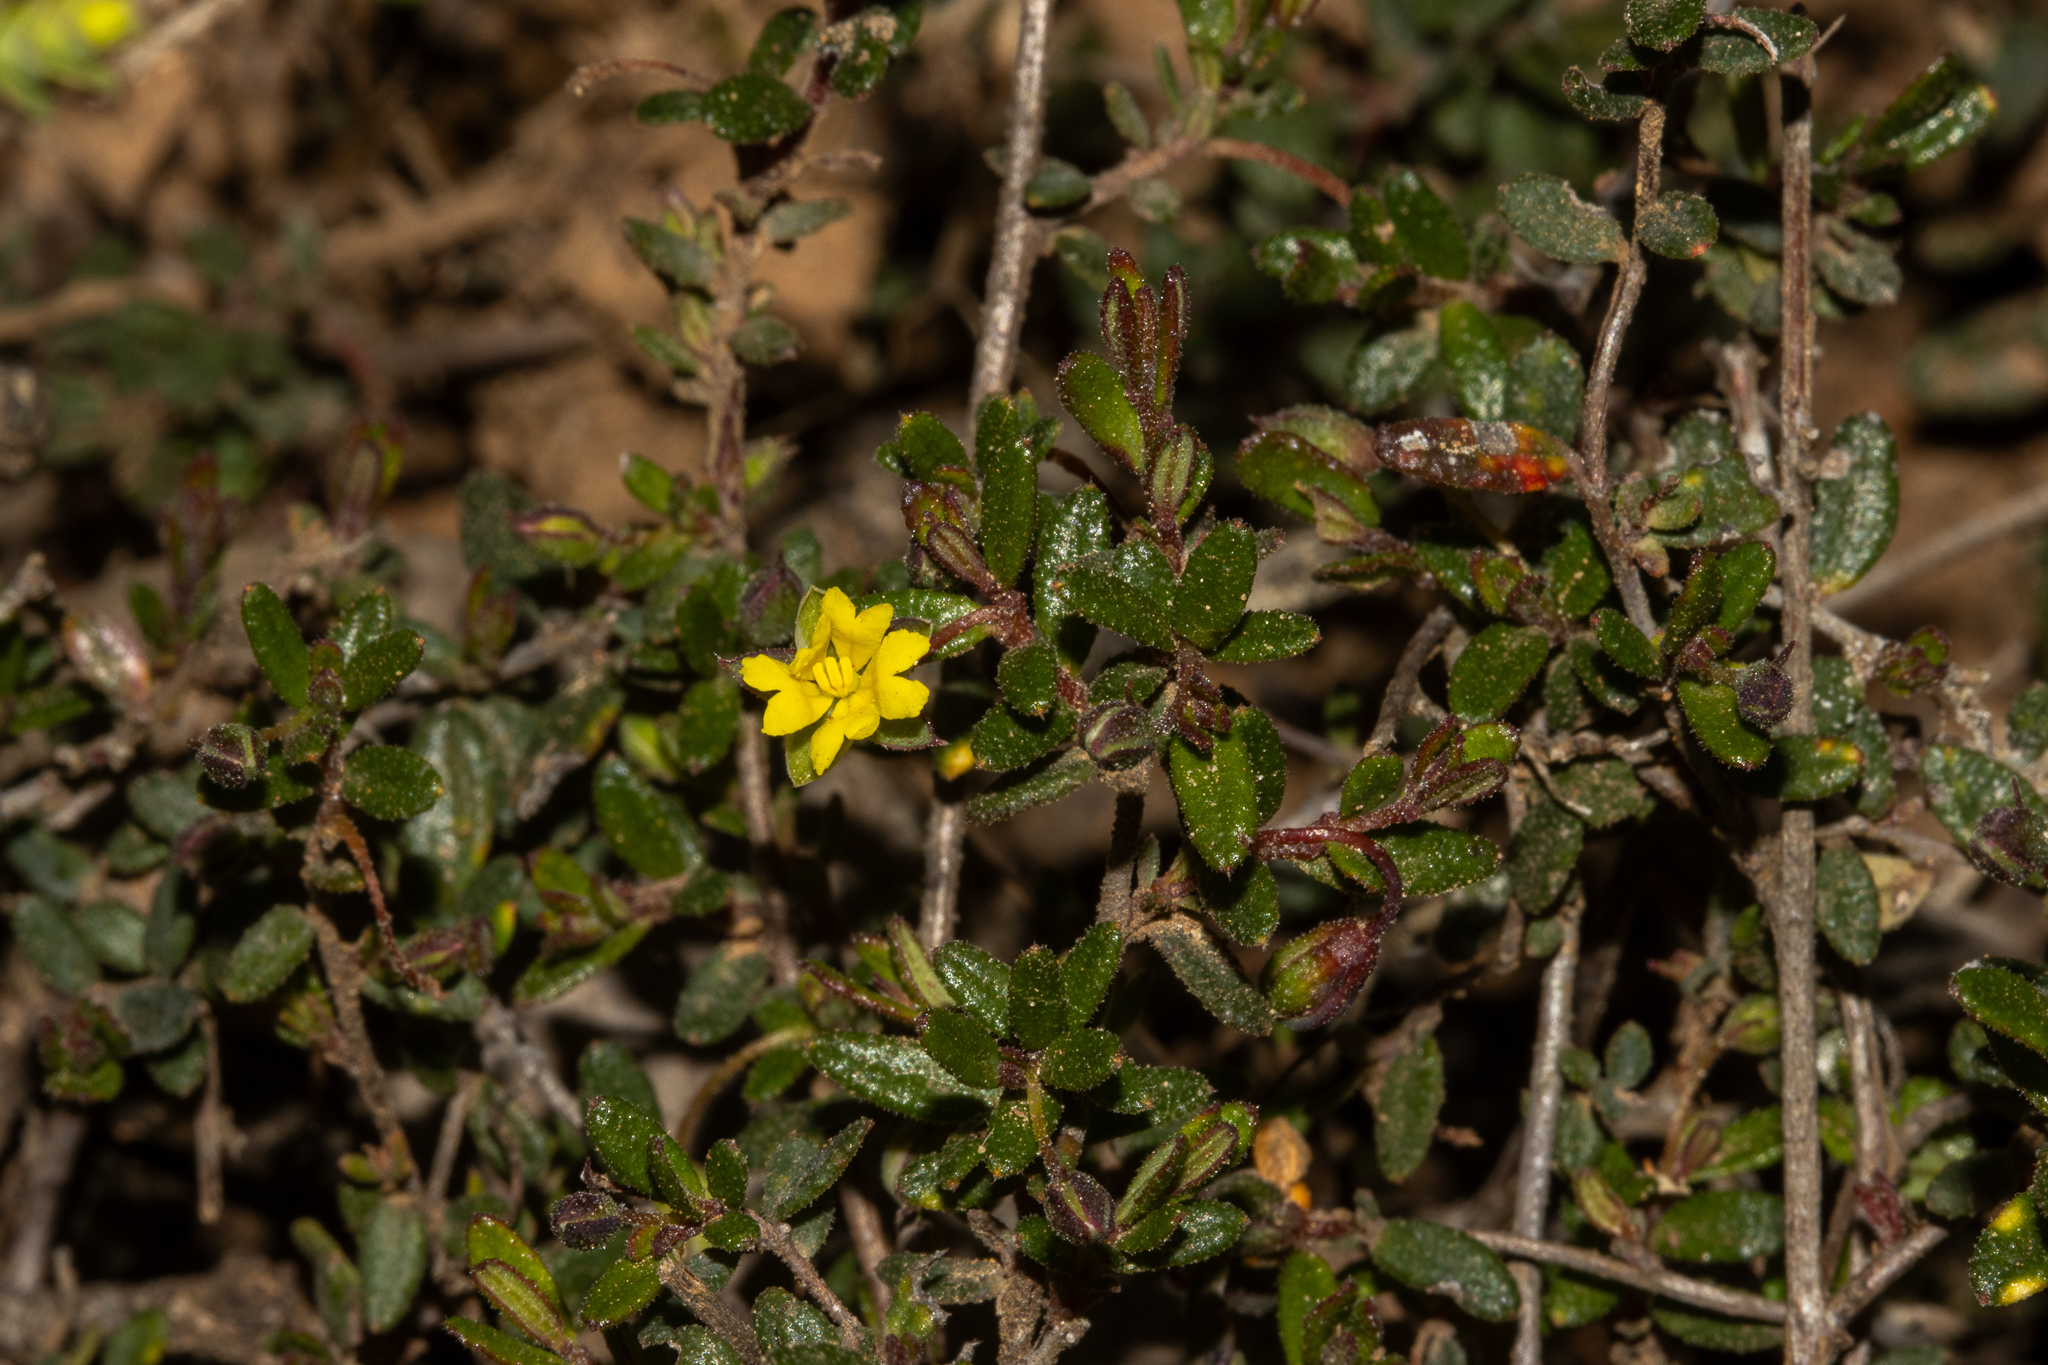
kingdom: Plantae
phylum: Tracheophyta
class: Magnoliopsida
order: Dilleniales
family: Dilleniaceae
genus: Hibbertia
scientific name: Hibbertia
